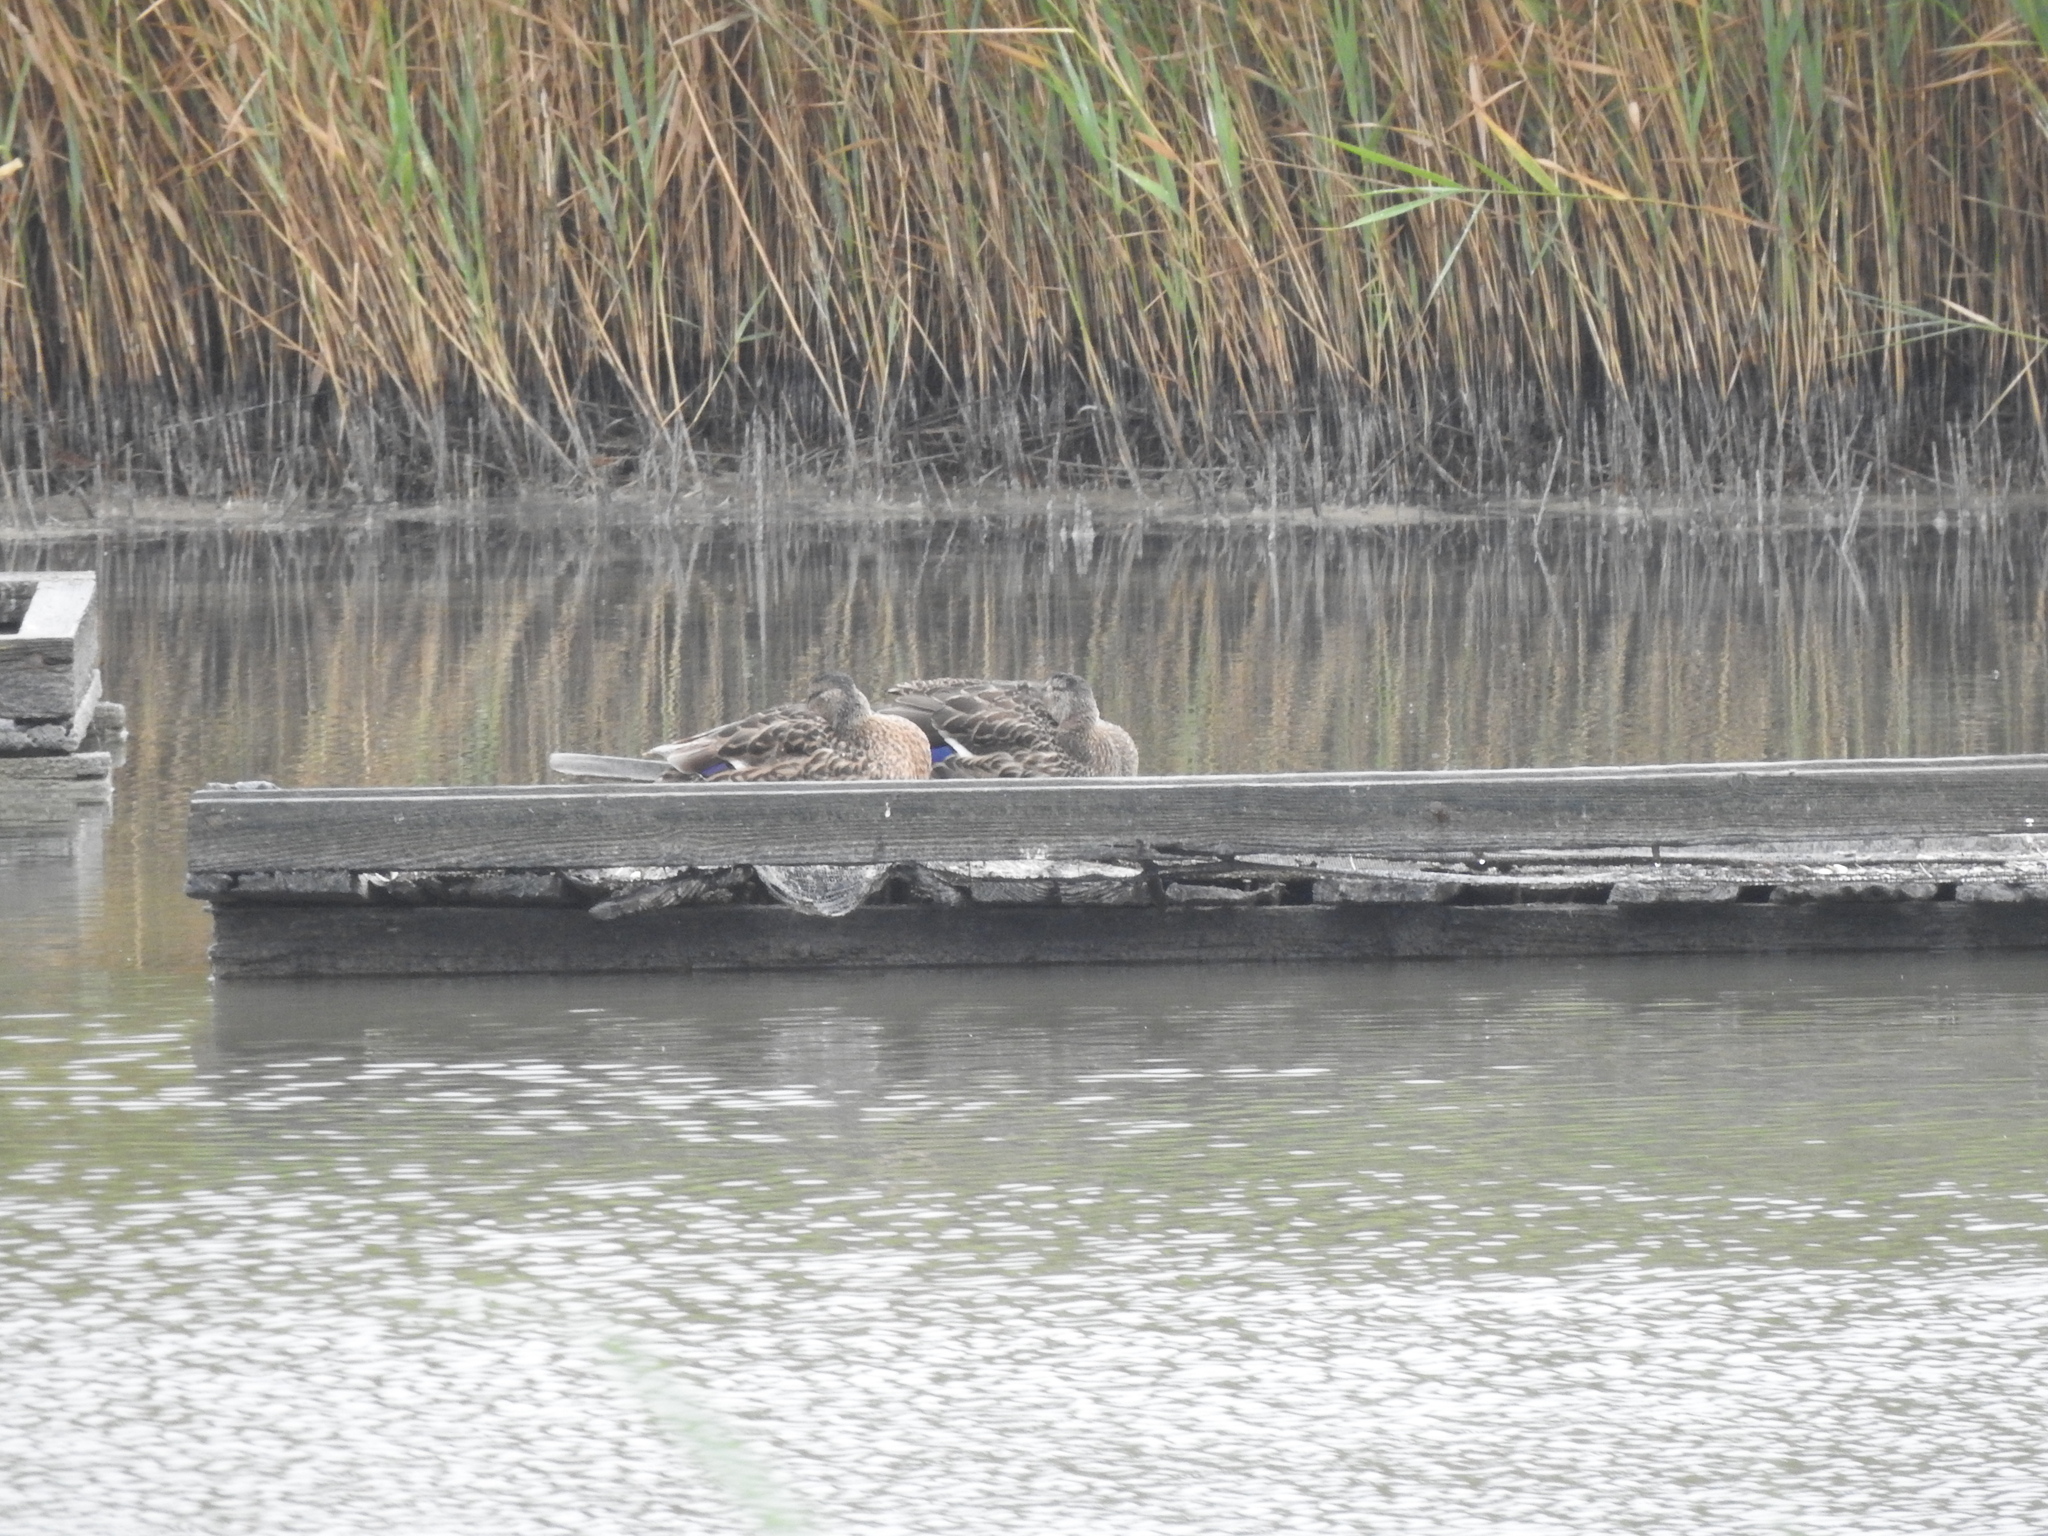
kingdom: Animalia
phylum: Chordata
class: Aves
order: Anseriformes
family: Anatidae
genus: Anas
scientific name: Anas platyrhynchos
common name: Mallard
